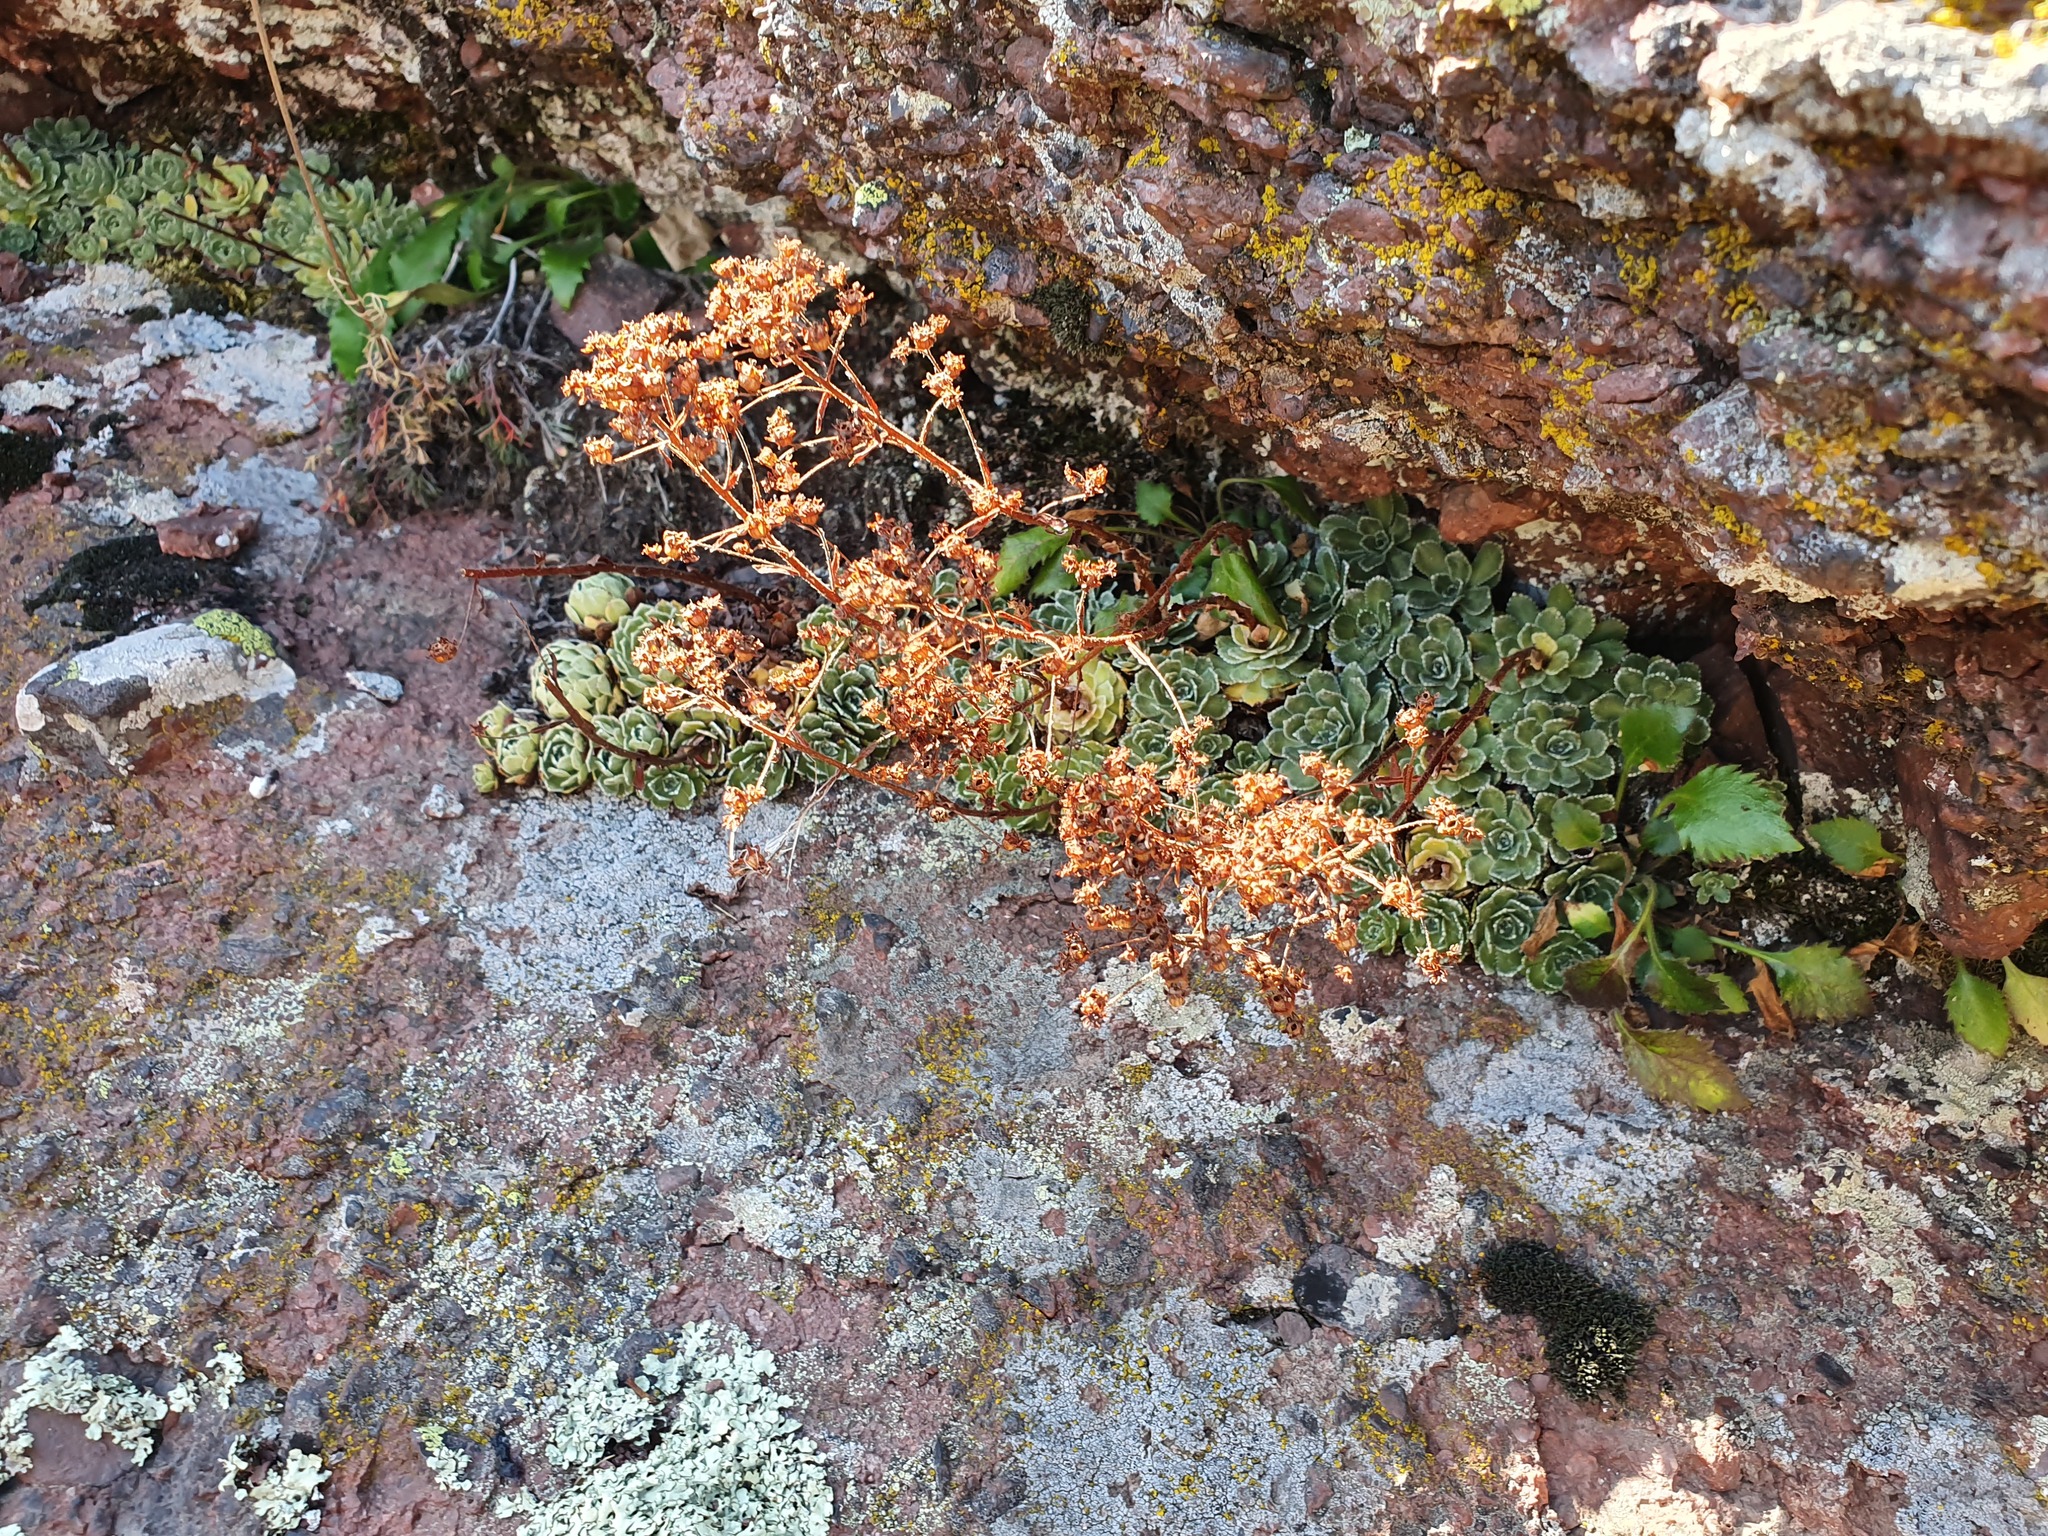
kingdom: Plantae
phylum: Tracheophyta
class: Magnoliopsida
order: Saxifragales
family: Saxifragaceae
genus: Saxifraga
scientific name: Saxifraga paniculata
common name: Livelong saxifrage
